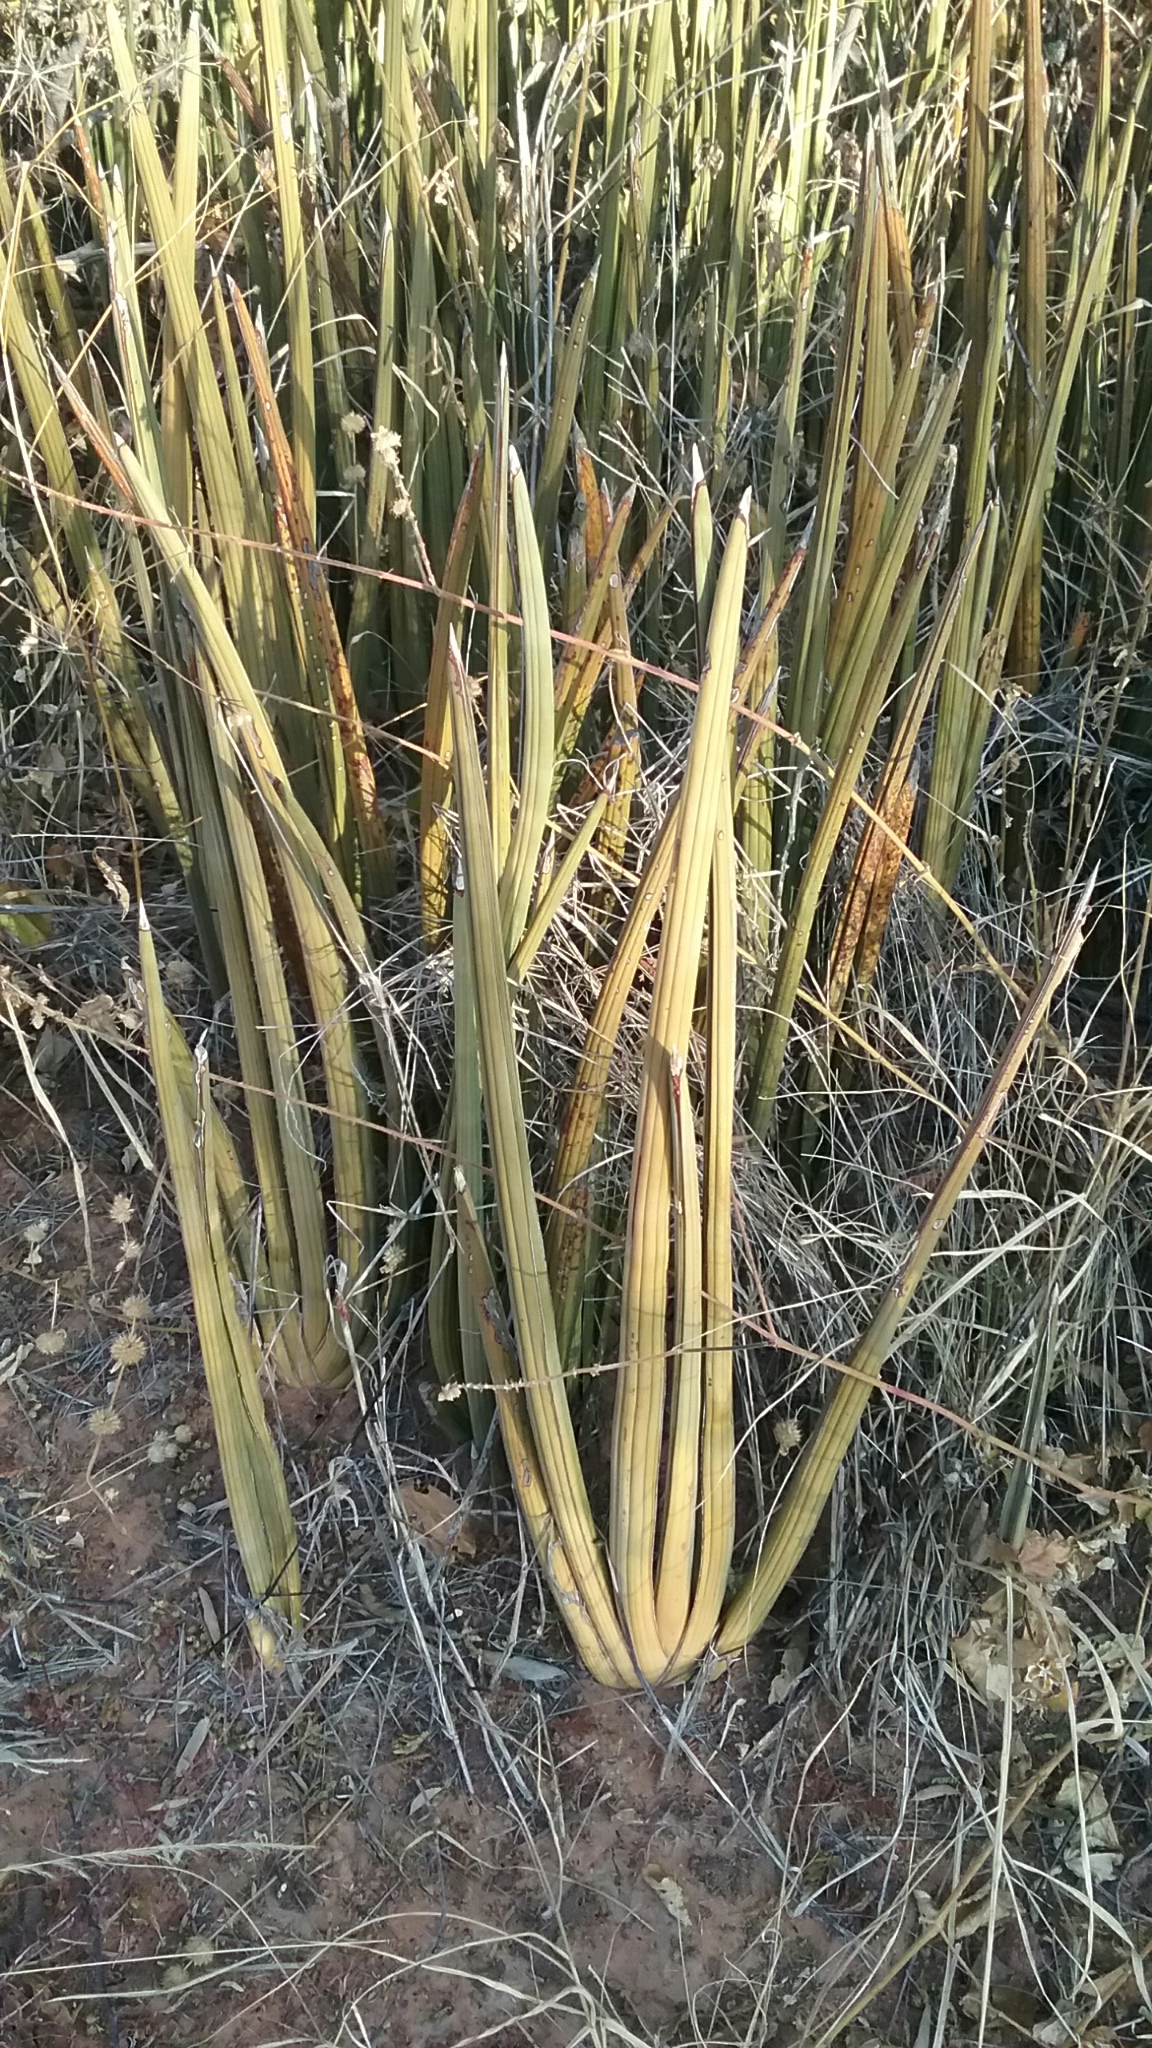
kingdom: Plantae
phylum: Tracheophyta
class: Liliopsida
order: Asparagales
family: Asparagaceae
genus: Dracaena
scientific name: Dracaena pearsonii
